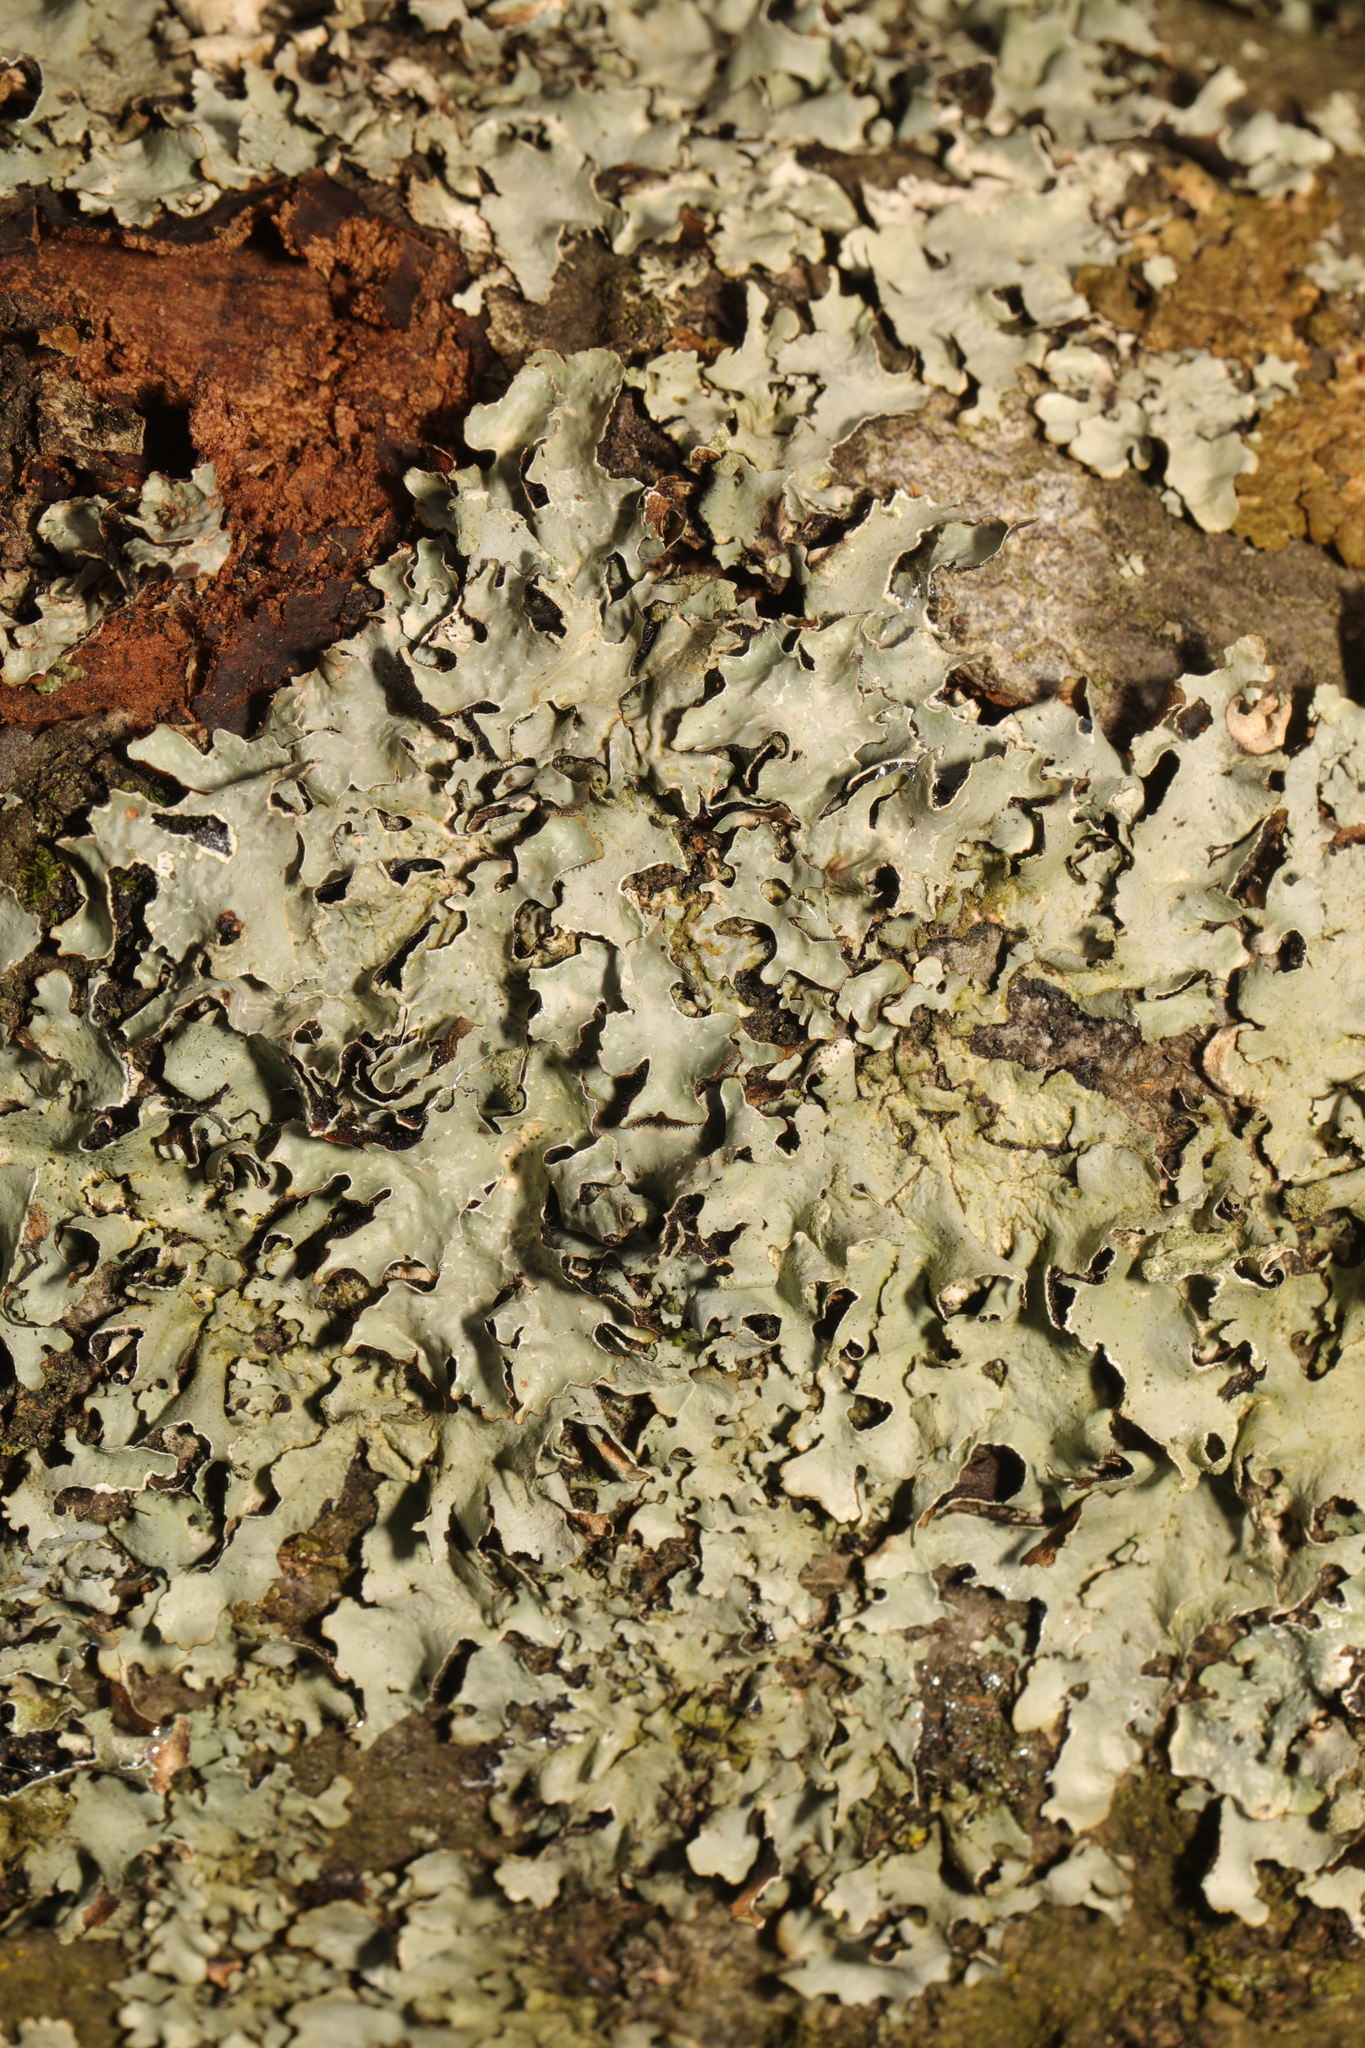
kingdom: Fungi
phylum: Ascomycota
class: Lecanoromycetes
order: Lecanorales
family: Parmeliaceae
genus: Parmelia
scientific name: Parmelia sulcata
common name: Netted shield lichen
